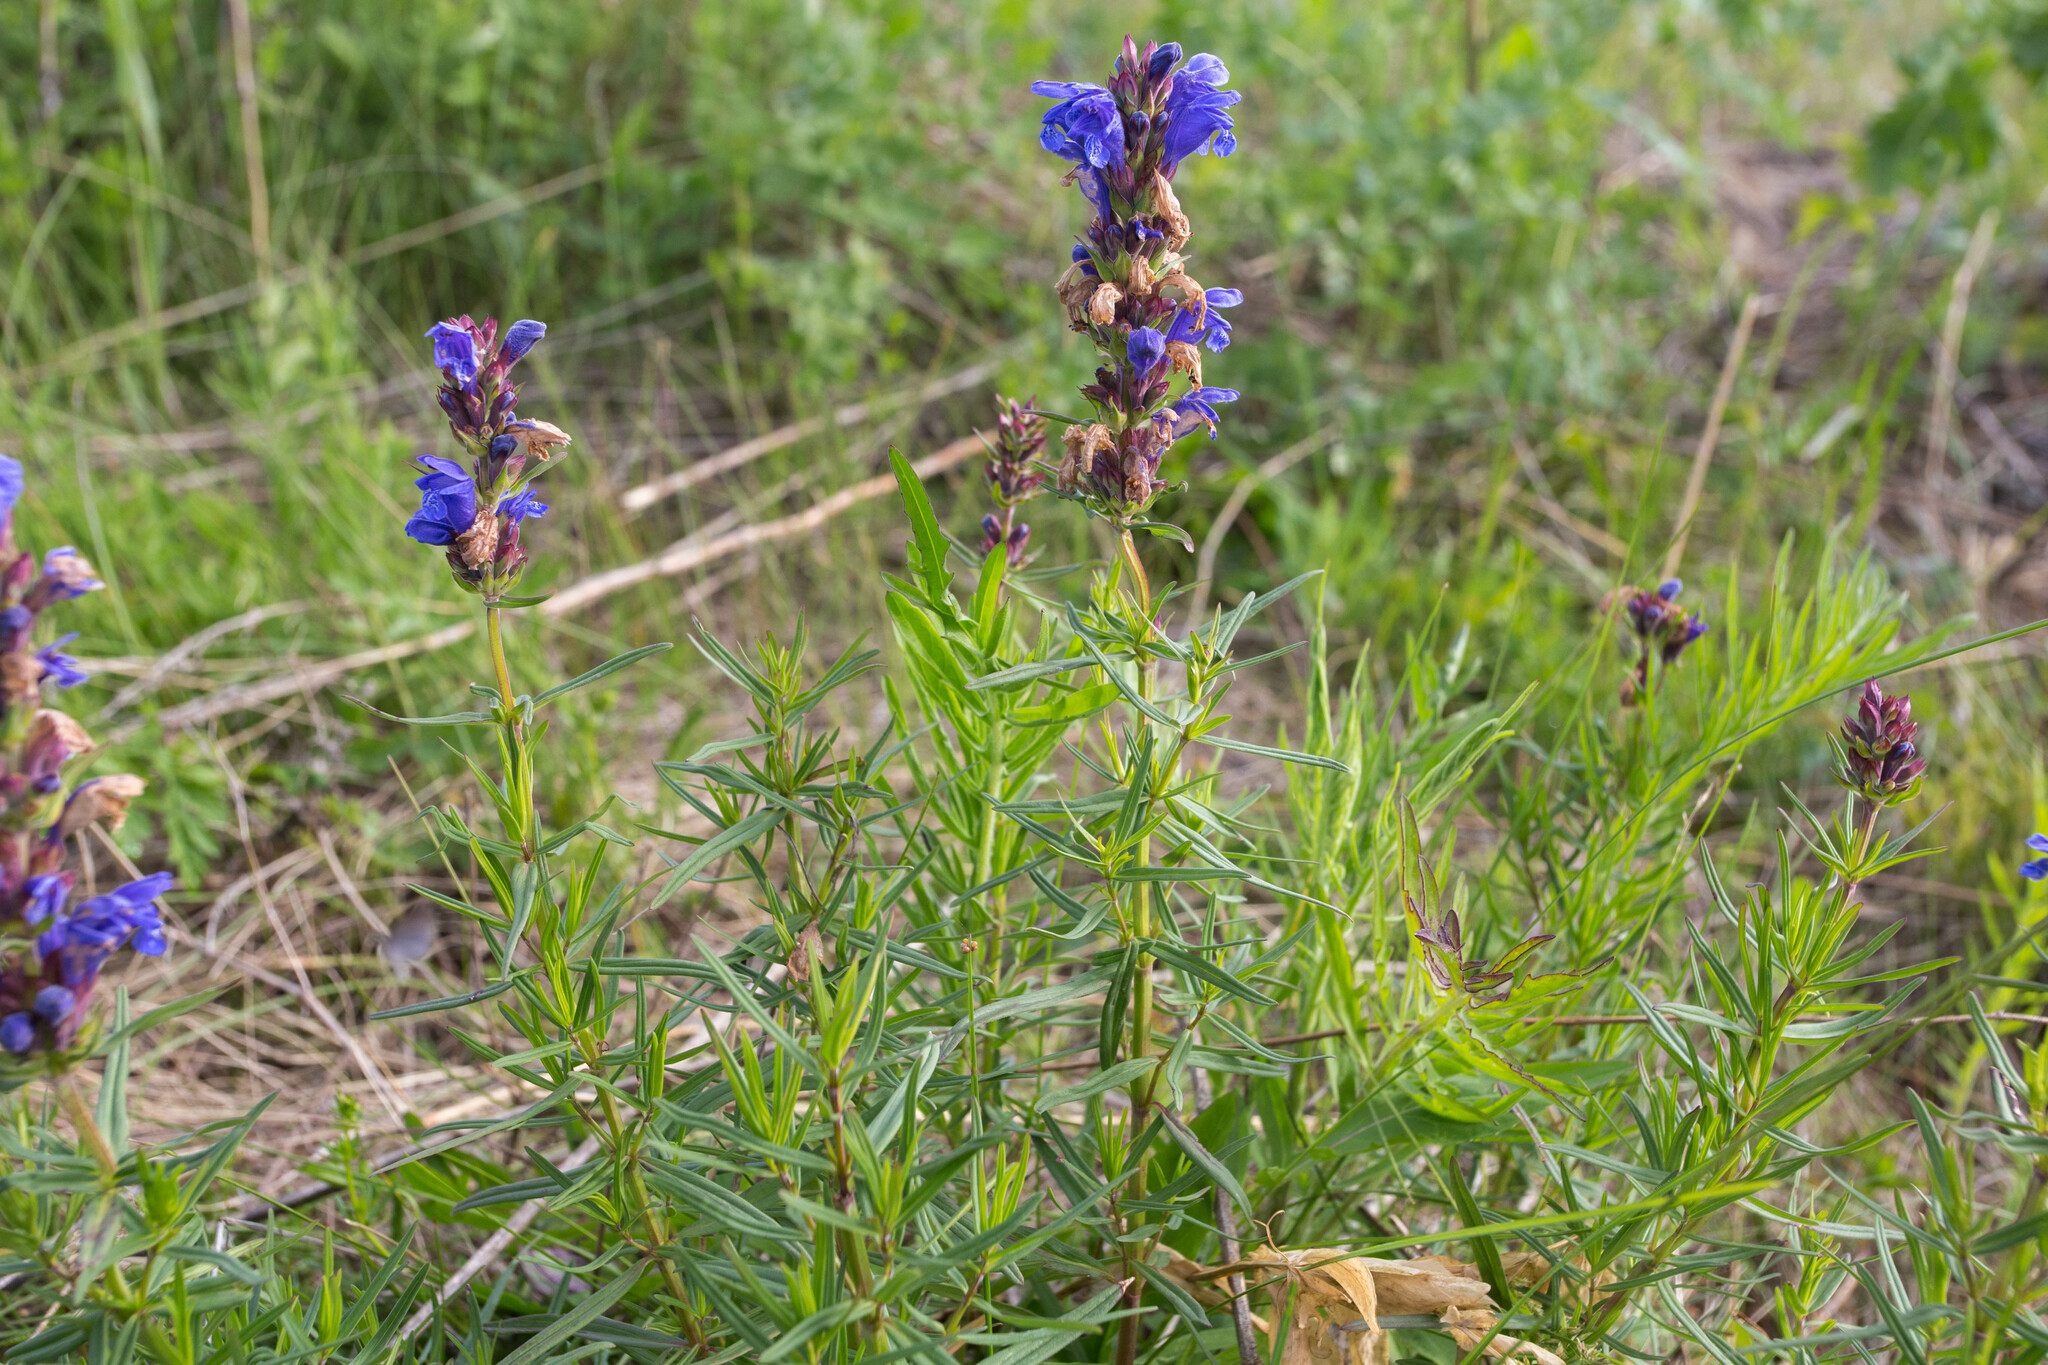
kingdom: Plantae
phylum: Tracheophyta
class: Magnoliopsida
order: Lamiales
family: Lamiaceae
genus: Dracocephalum
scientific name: Dracocephalum ruyschiana
